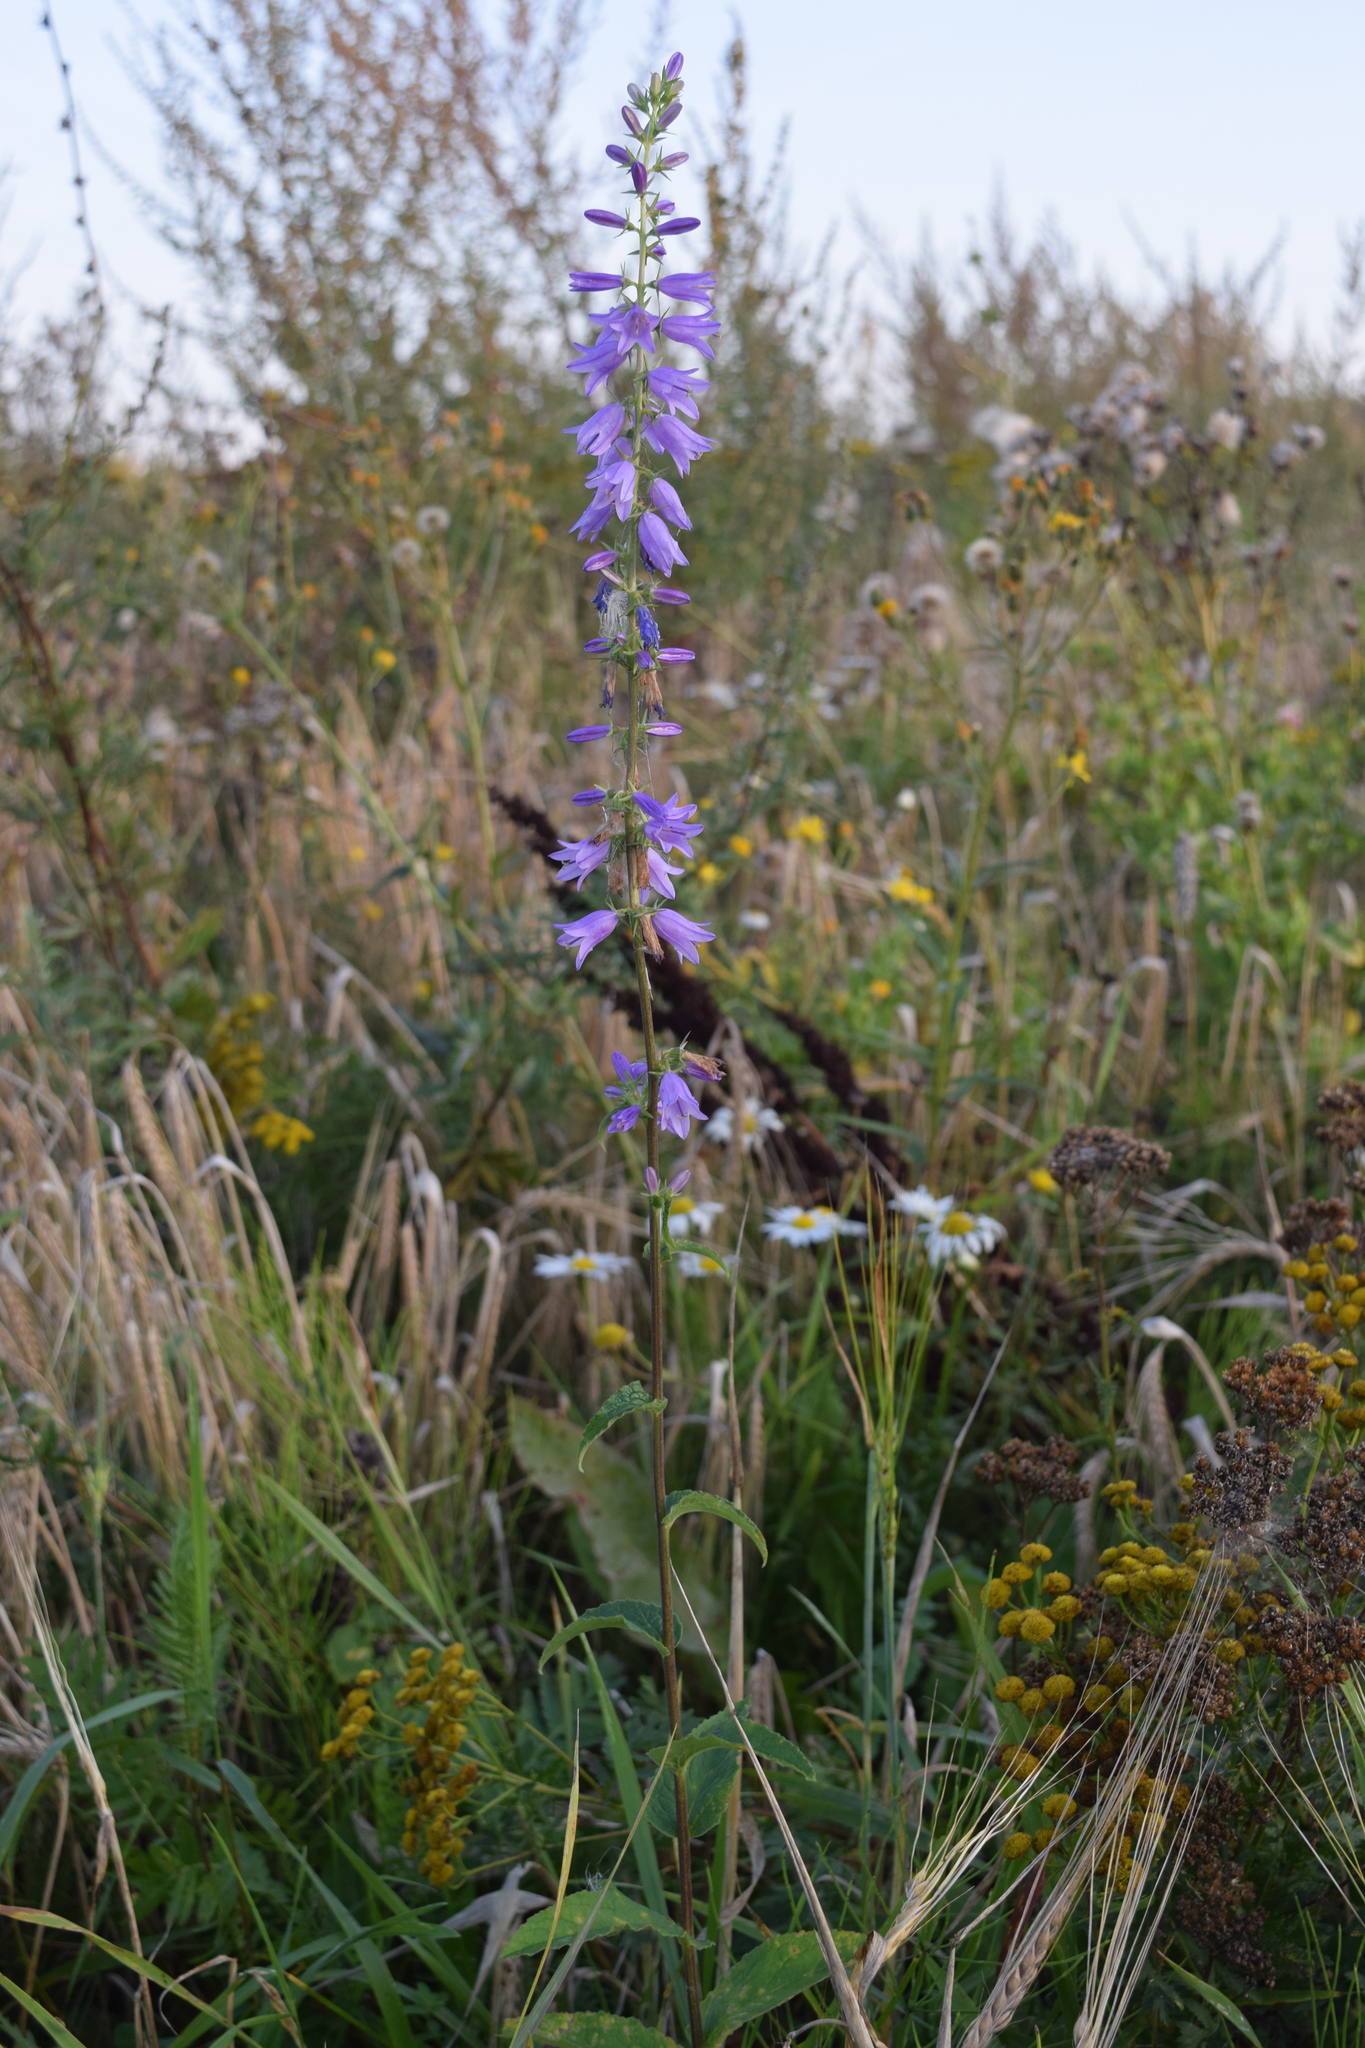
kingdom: Plantae
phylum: Tracheophyta
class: Magnoliopsida
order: Asterales
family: Campanulaceae
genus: Campanula
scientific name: Campanula bononiensis
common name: Pale bellflower
